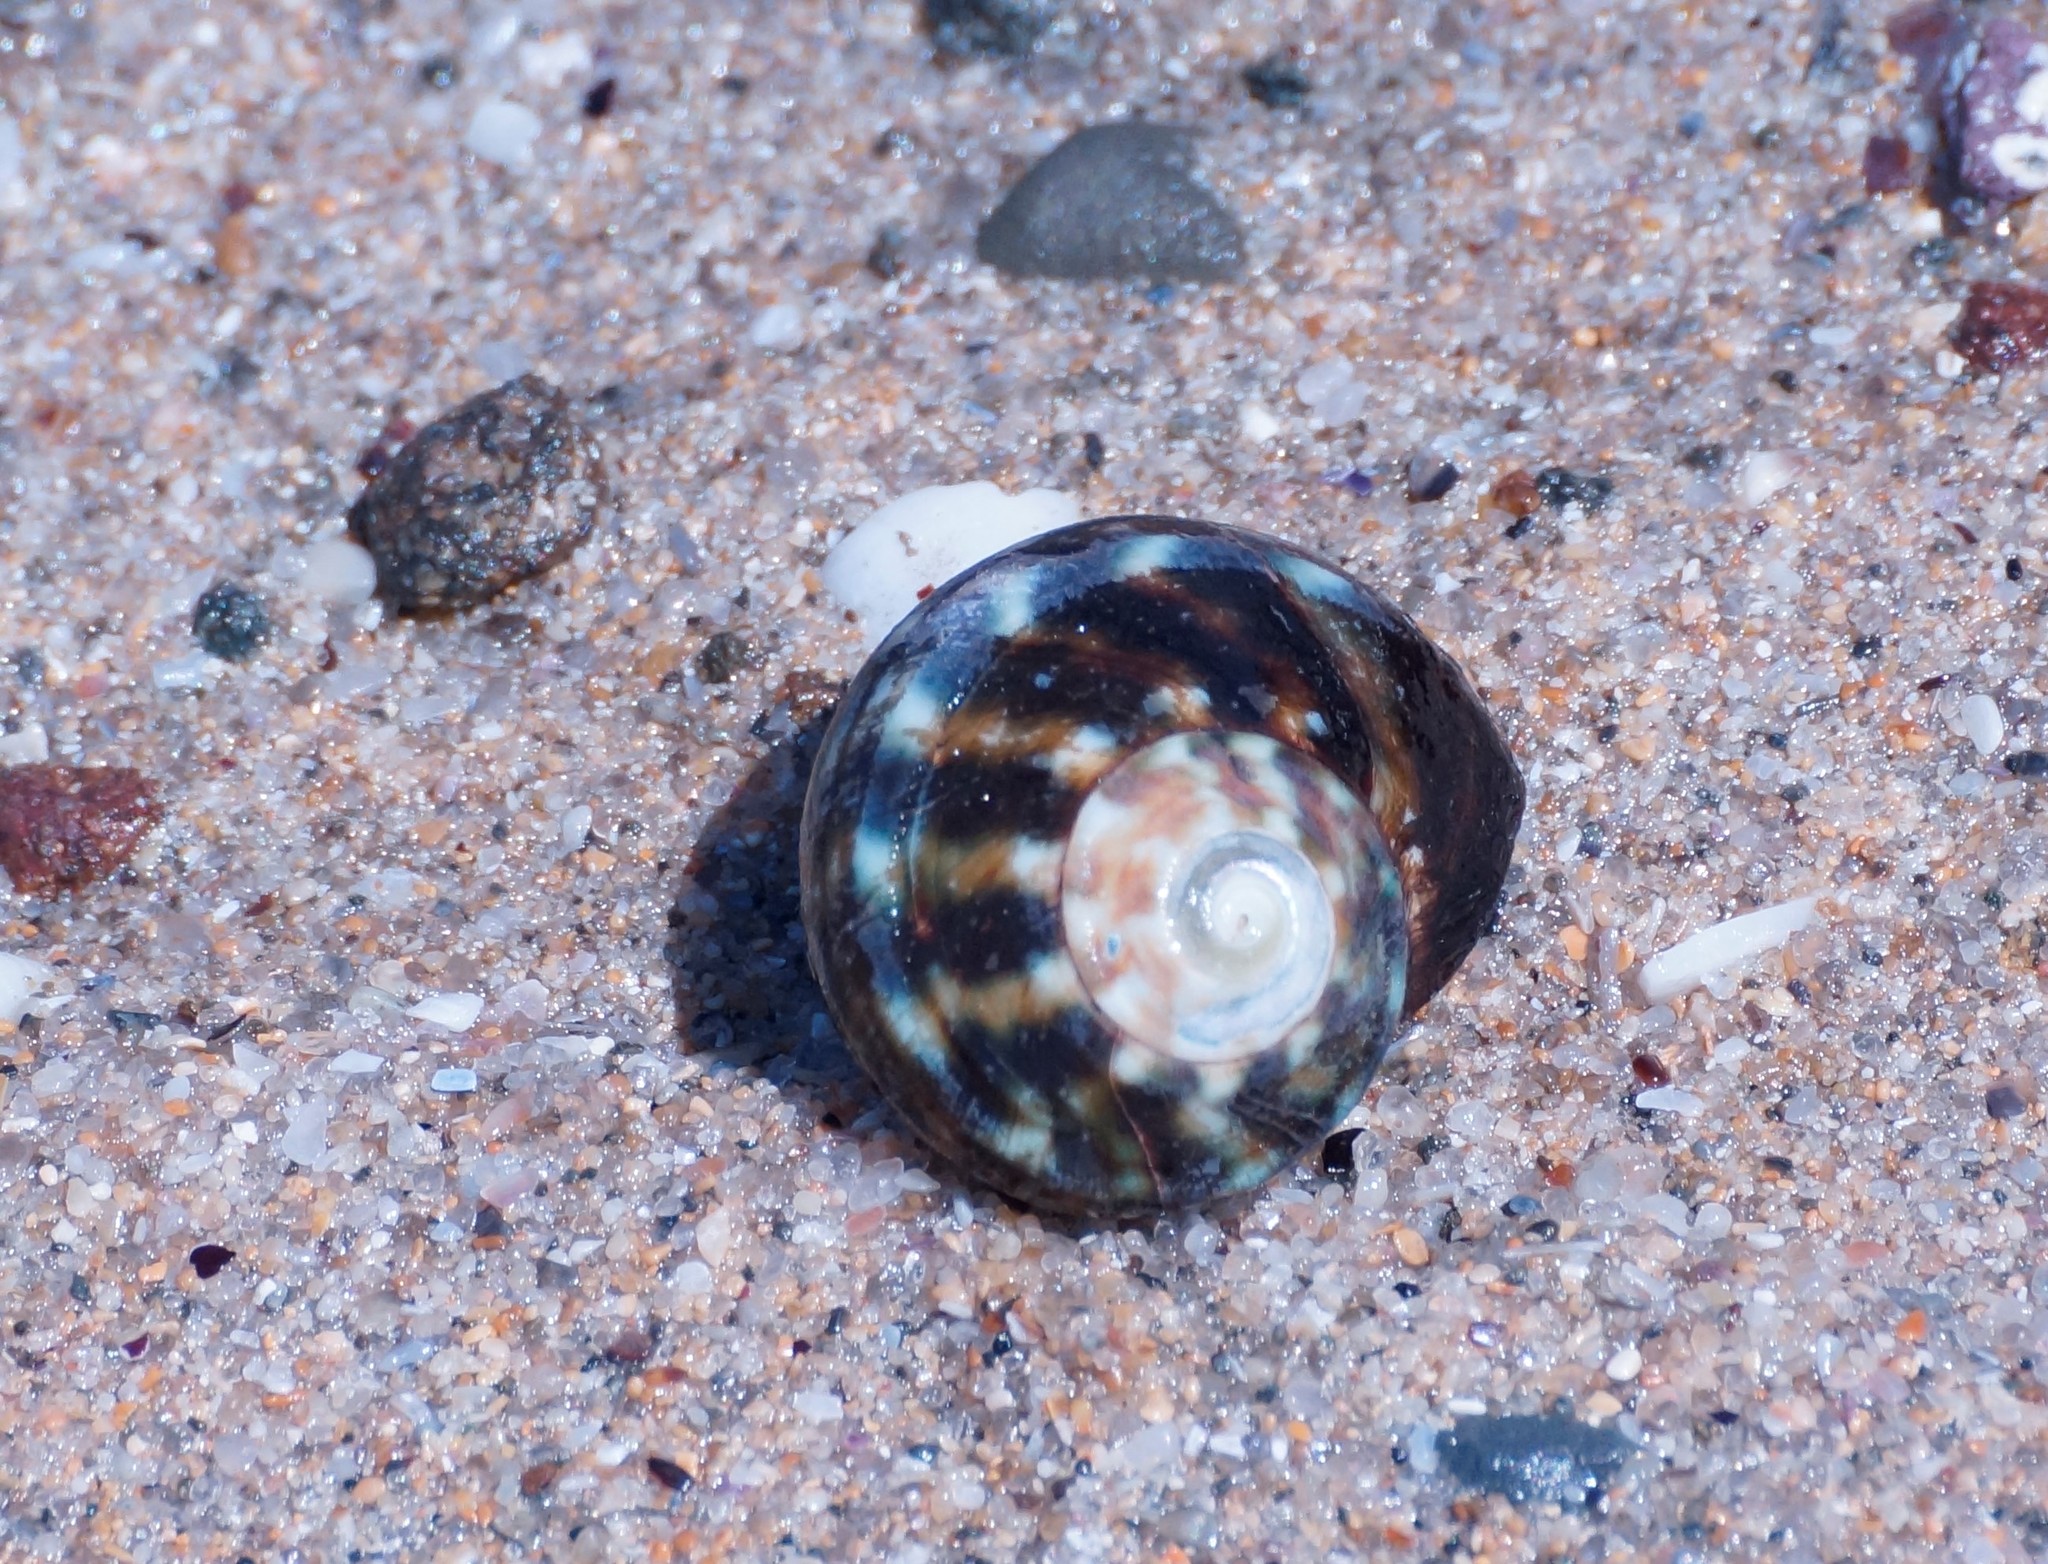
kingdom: Animalia
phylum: Mollusca
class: Gastropoda
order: Trochida
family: Turbinidae
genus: Lunella
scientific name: Lunella undulata
